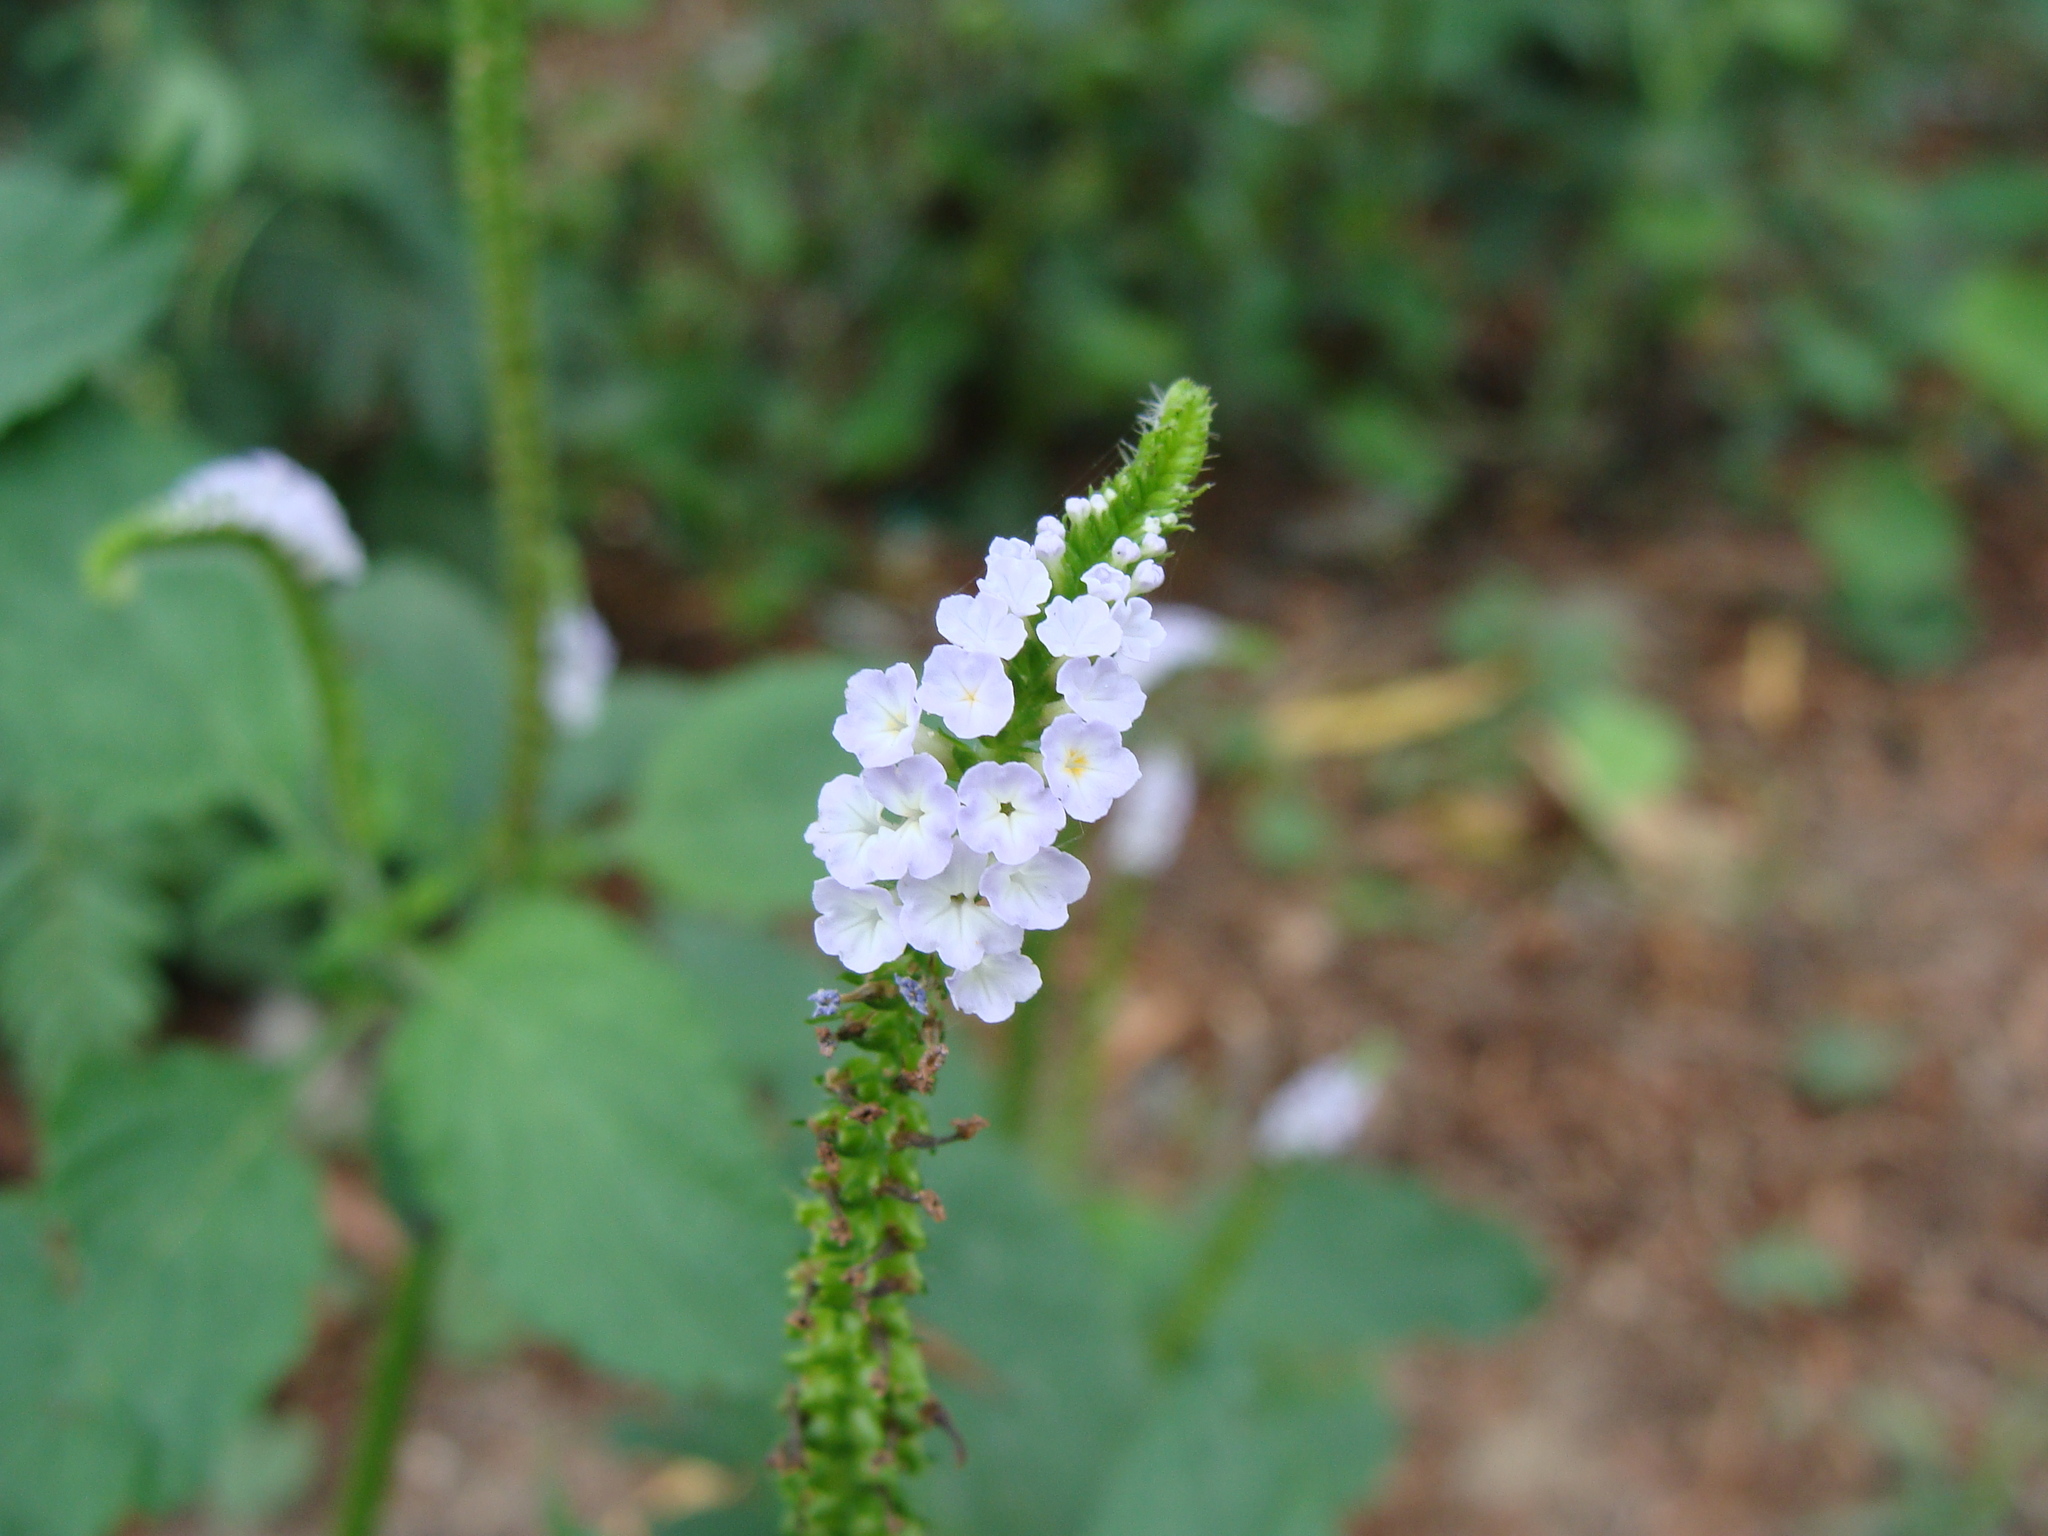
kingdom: Plantae
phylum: Tracheophyta
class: Magnoliopsida
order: Boraginales
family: Heliotropiaceae
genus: Heliotropium
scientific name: Heliotropium indicum
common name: Indian heliotrope
